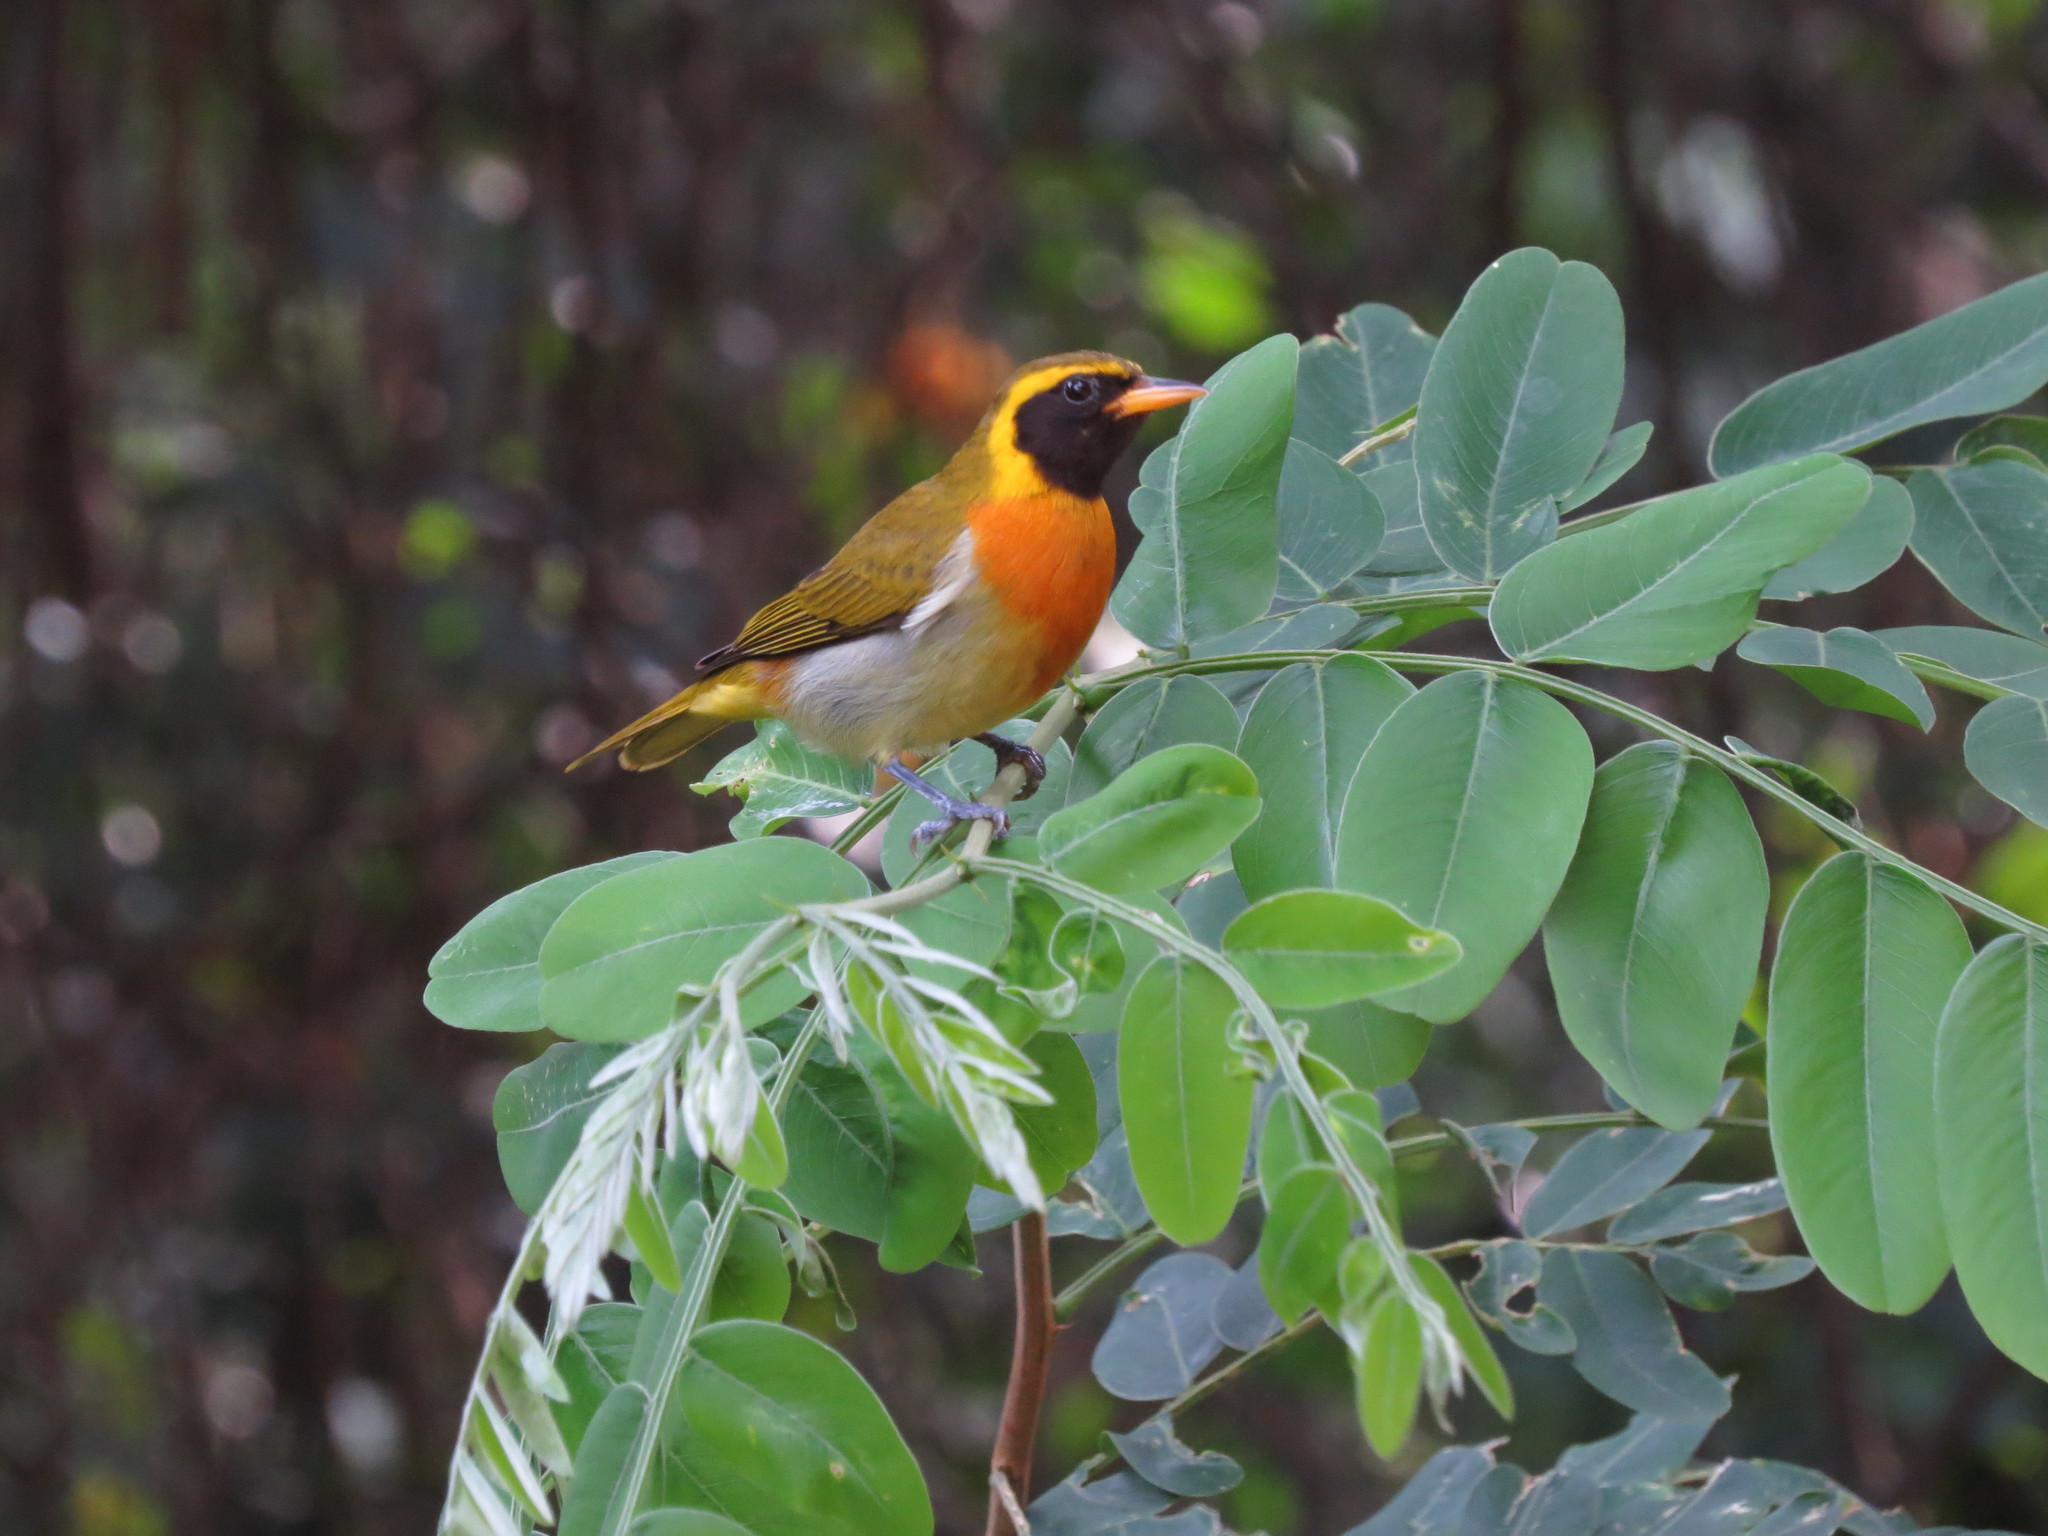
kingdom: Animalia
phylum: Chordata
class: Aves
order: Passeriformes
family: Thraupidae
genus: Hemithraupis
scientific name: Hemithraupis guira
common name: Guira tanager
